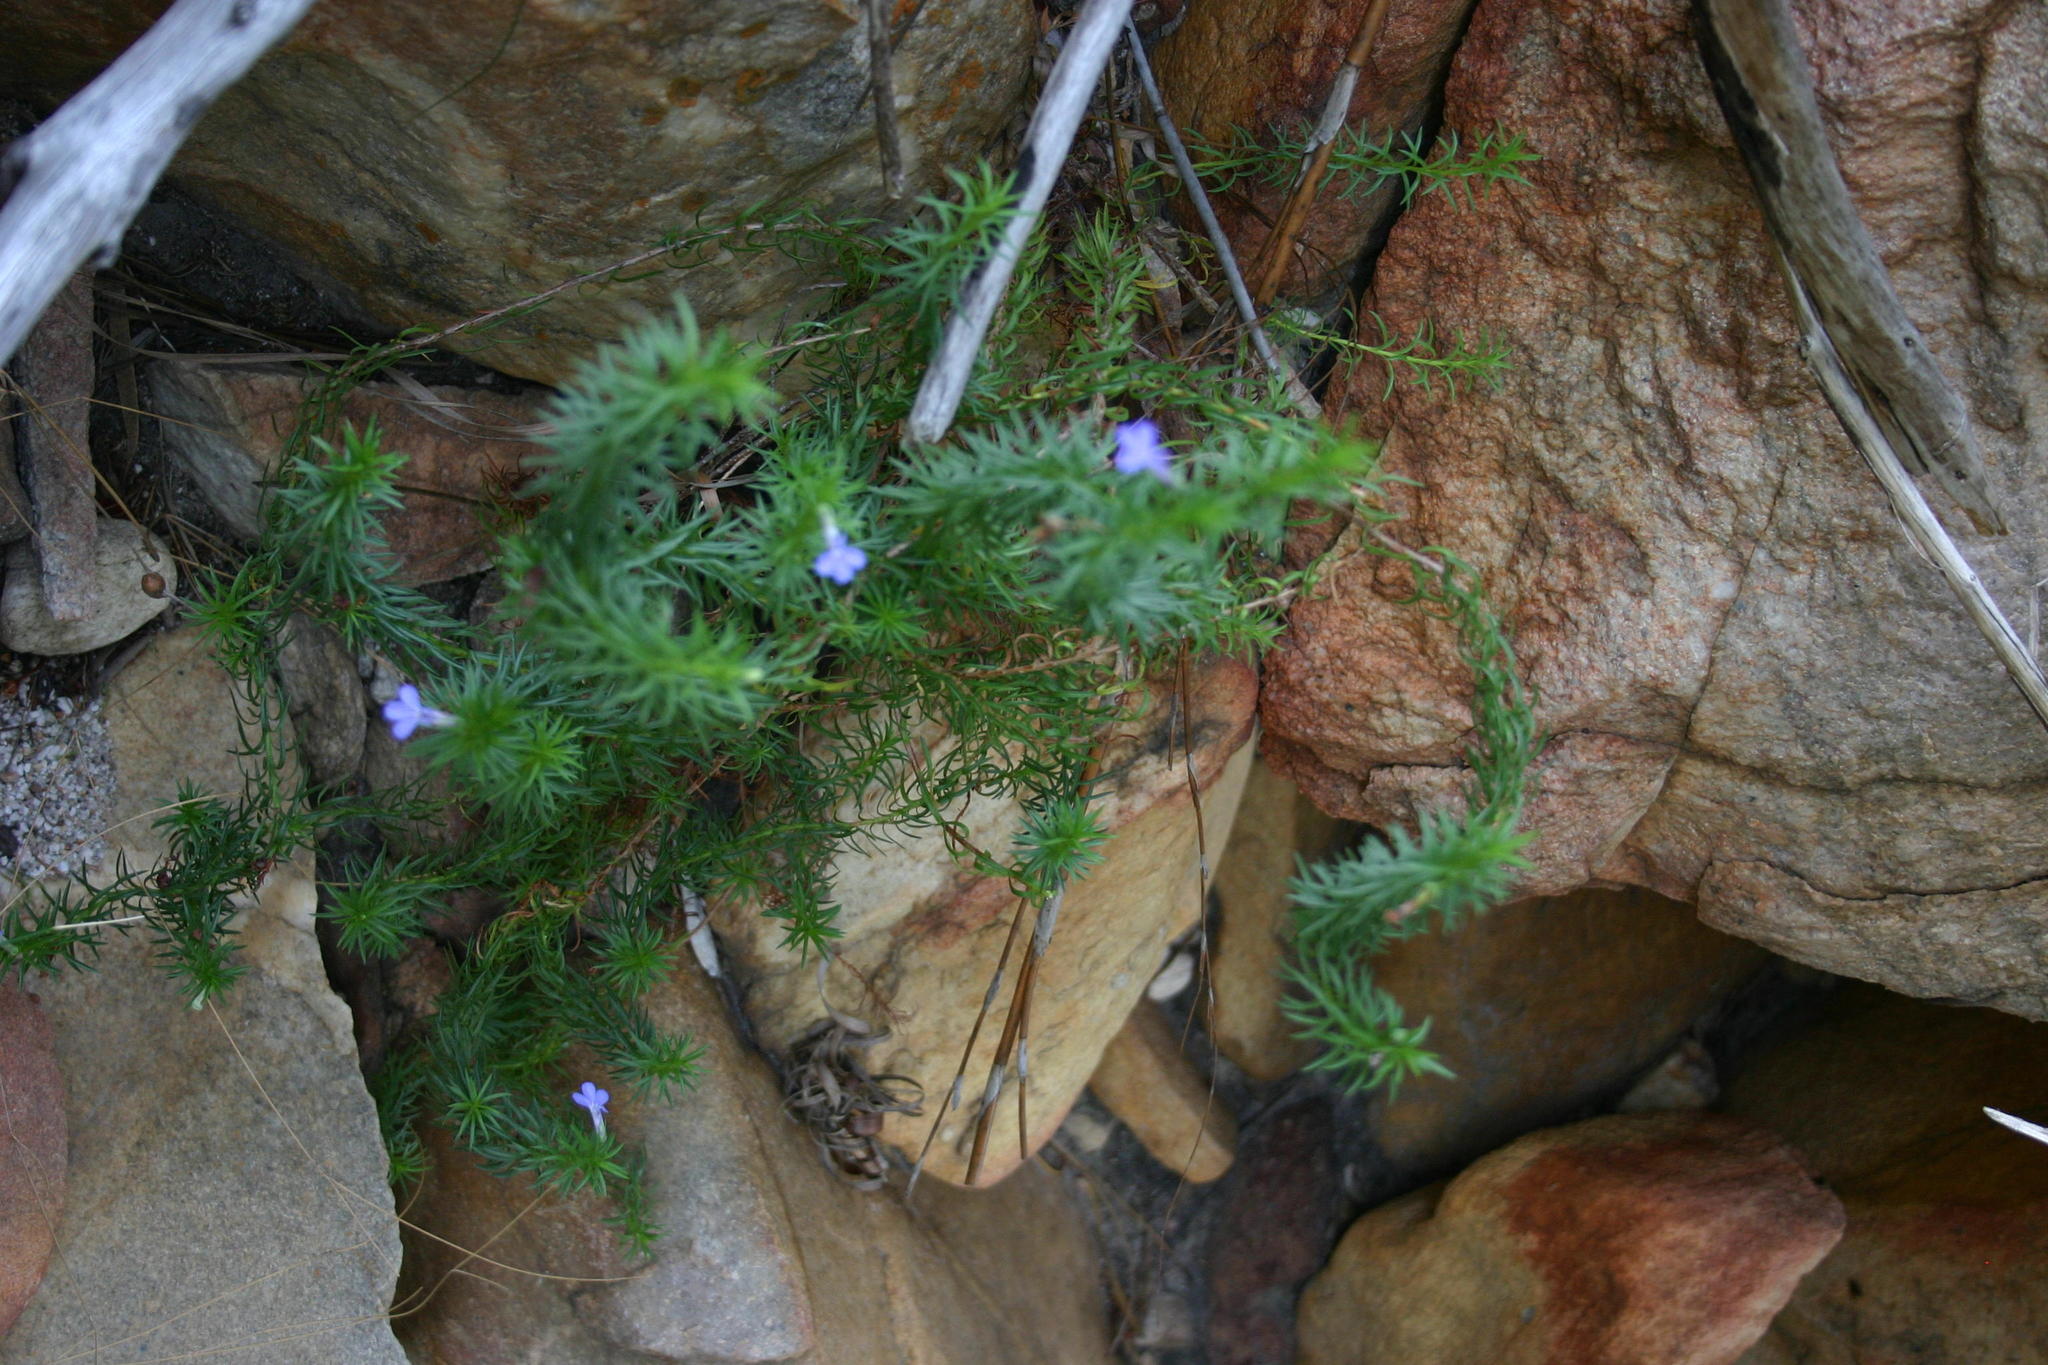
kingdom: Plantae
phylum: Tracheophyta
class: Magnoliopsida
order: Asterales
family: Campanulaceae
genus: Lobelia
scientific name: Lobelia pinifolia
